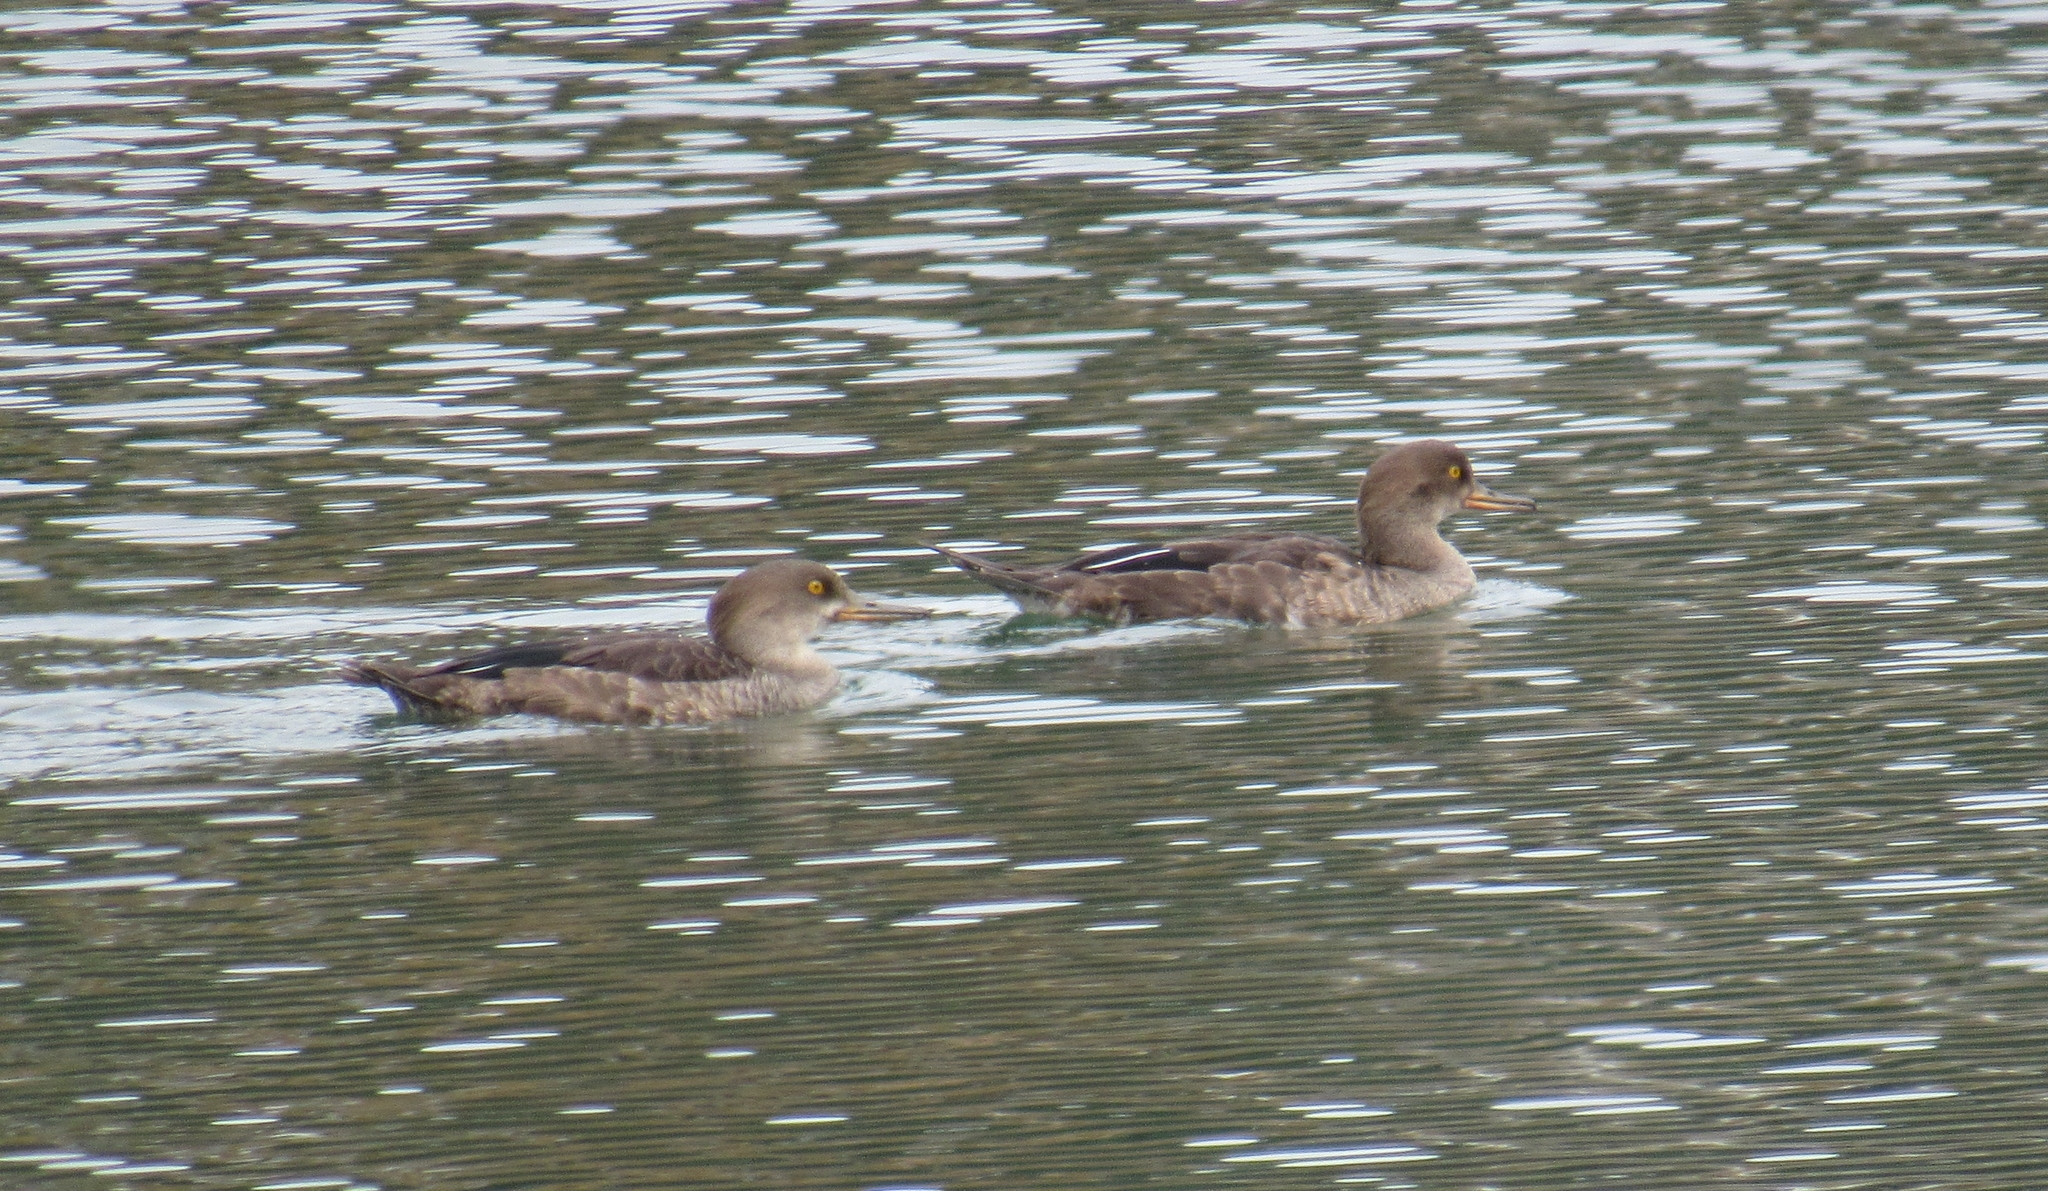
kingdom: Animalia
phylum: Chordata
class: Aves
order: Anseriformes
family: Anatidae
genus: Lophodytes
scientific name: Lophodytes cucullatus
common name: Hooded merganser
